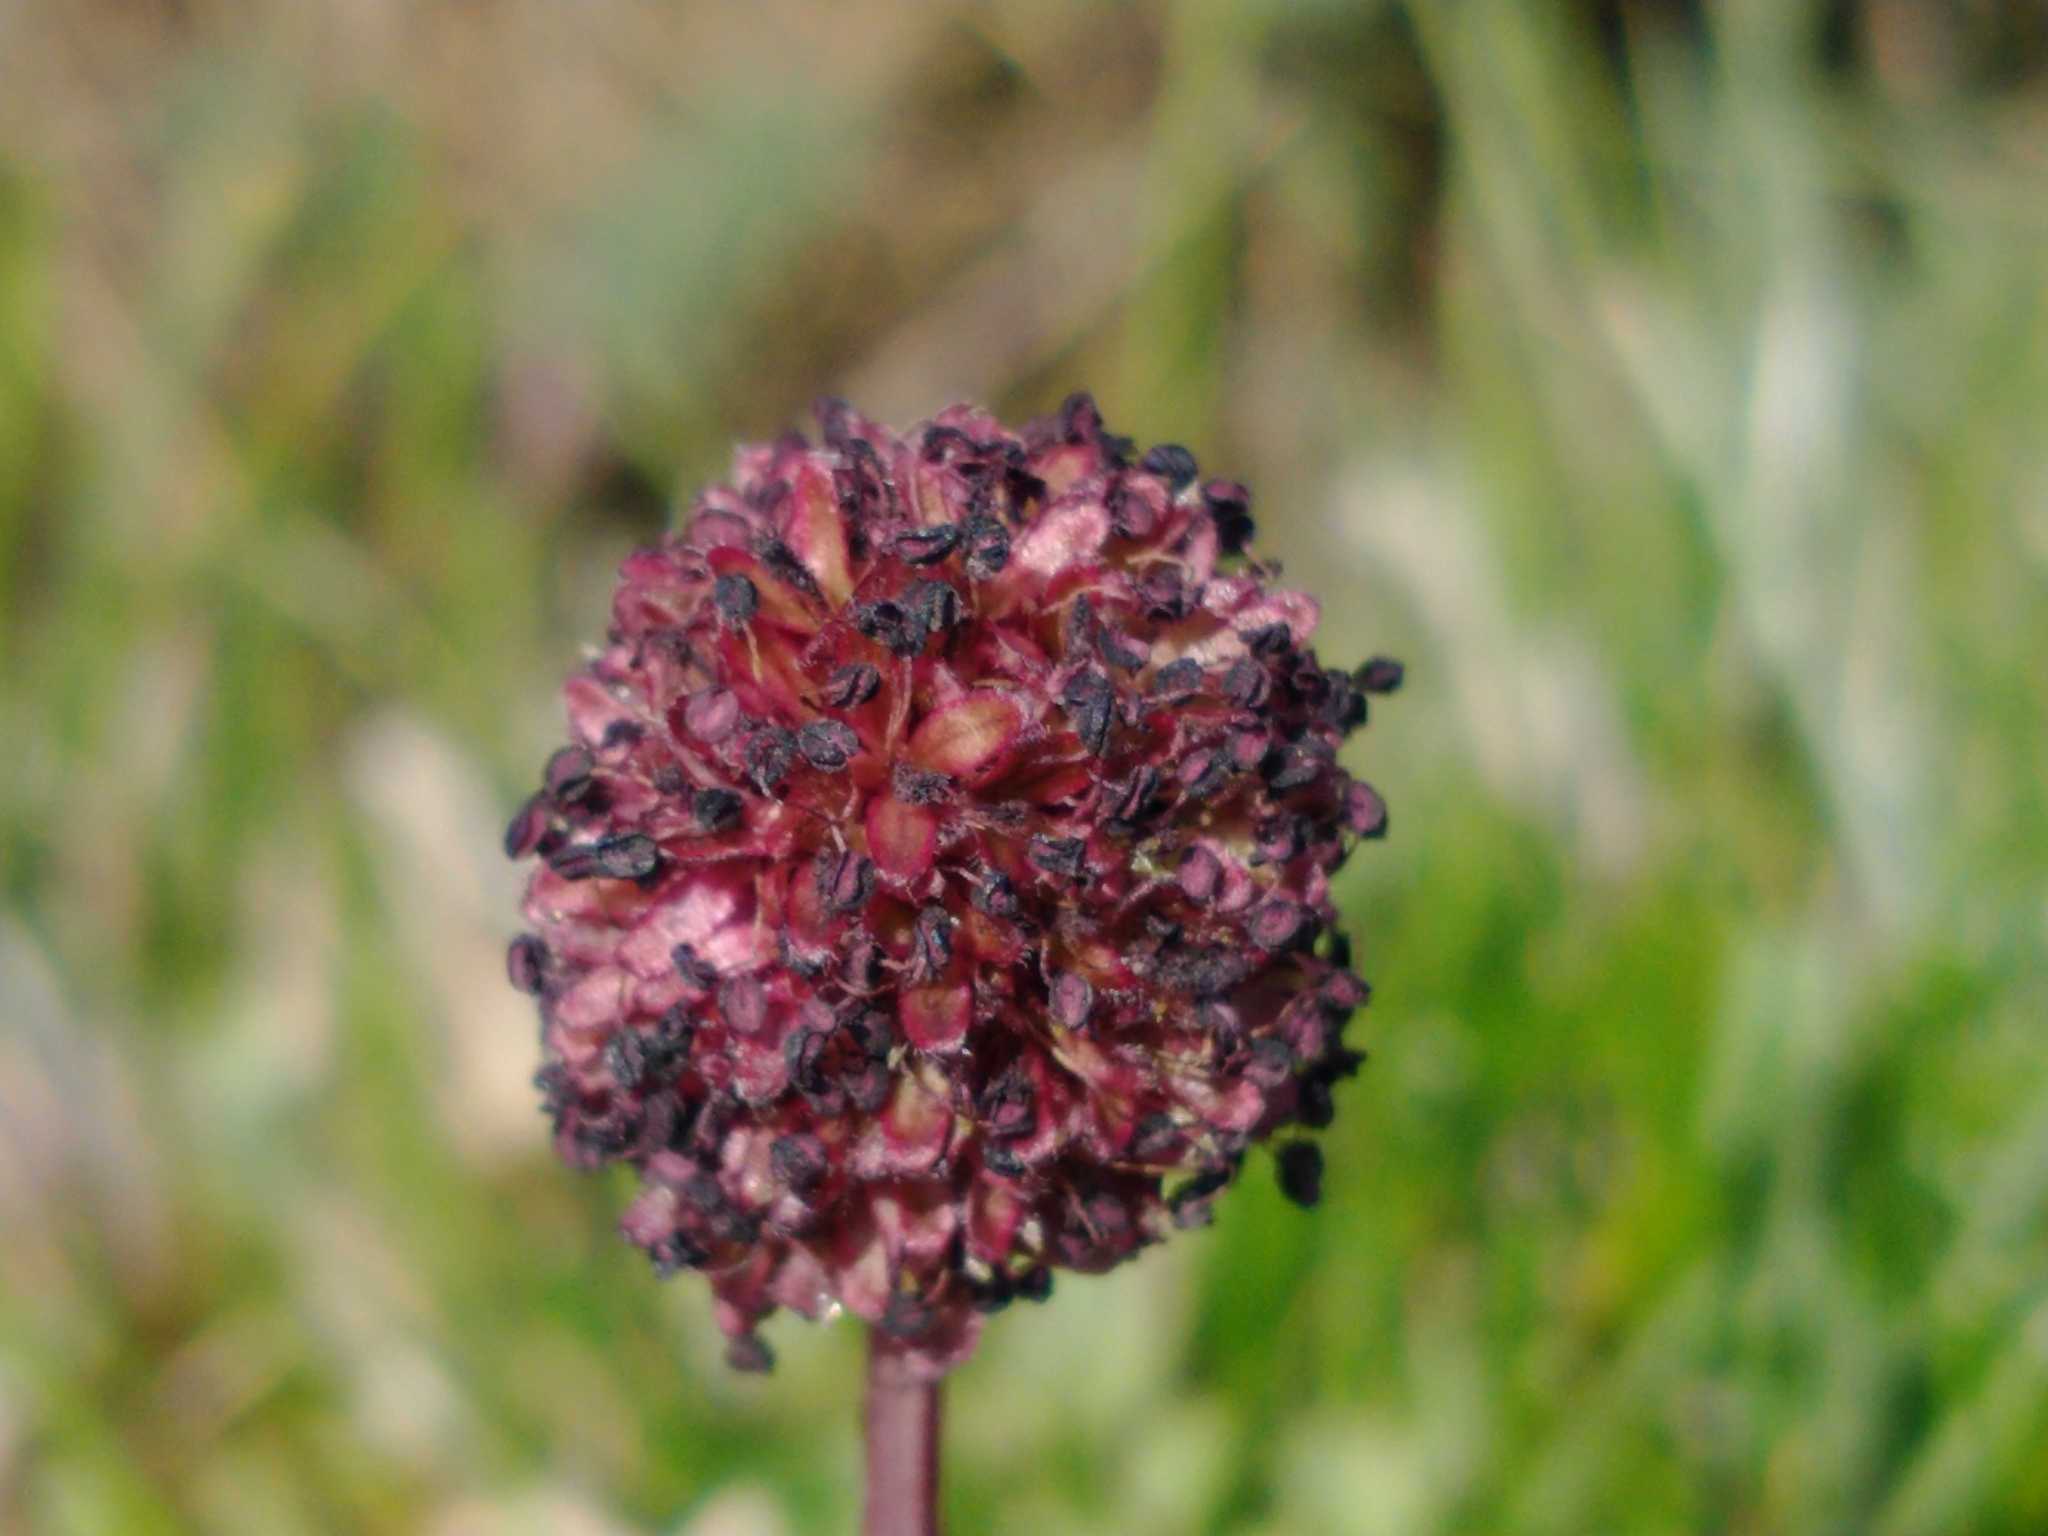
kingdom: Plantae
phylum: Tracheophyta
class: Magnoliopsida
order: Rosales
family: Rosaceae
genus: Acaena
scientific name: Acaena magellanica
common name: New zealand burr
